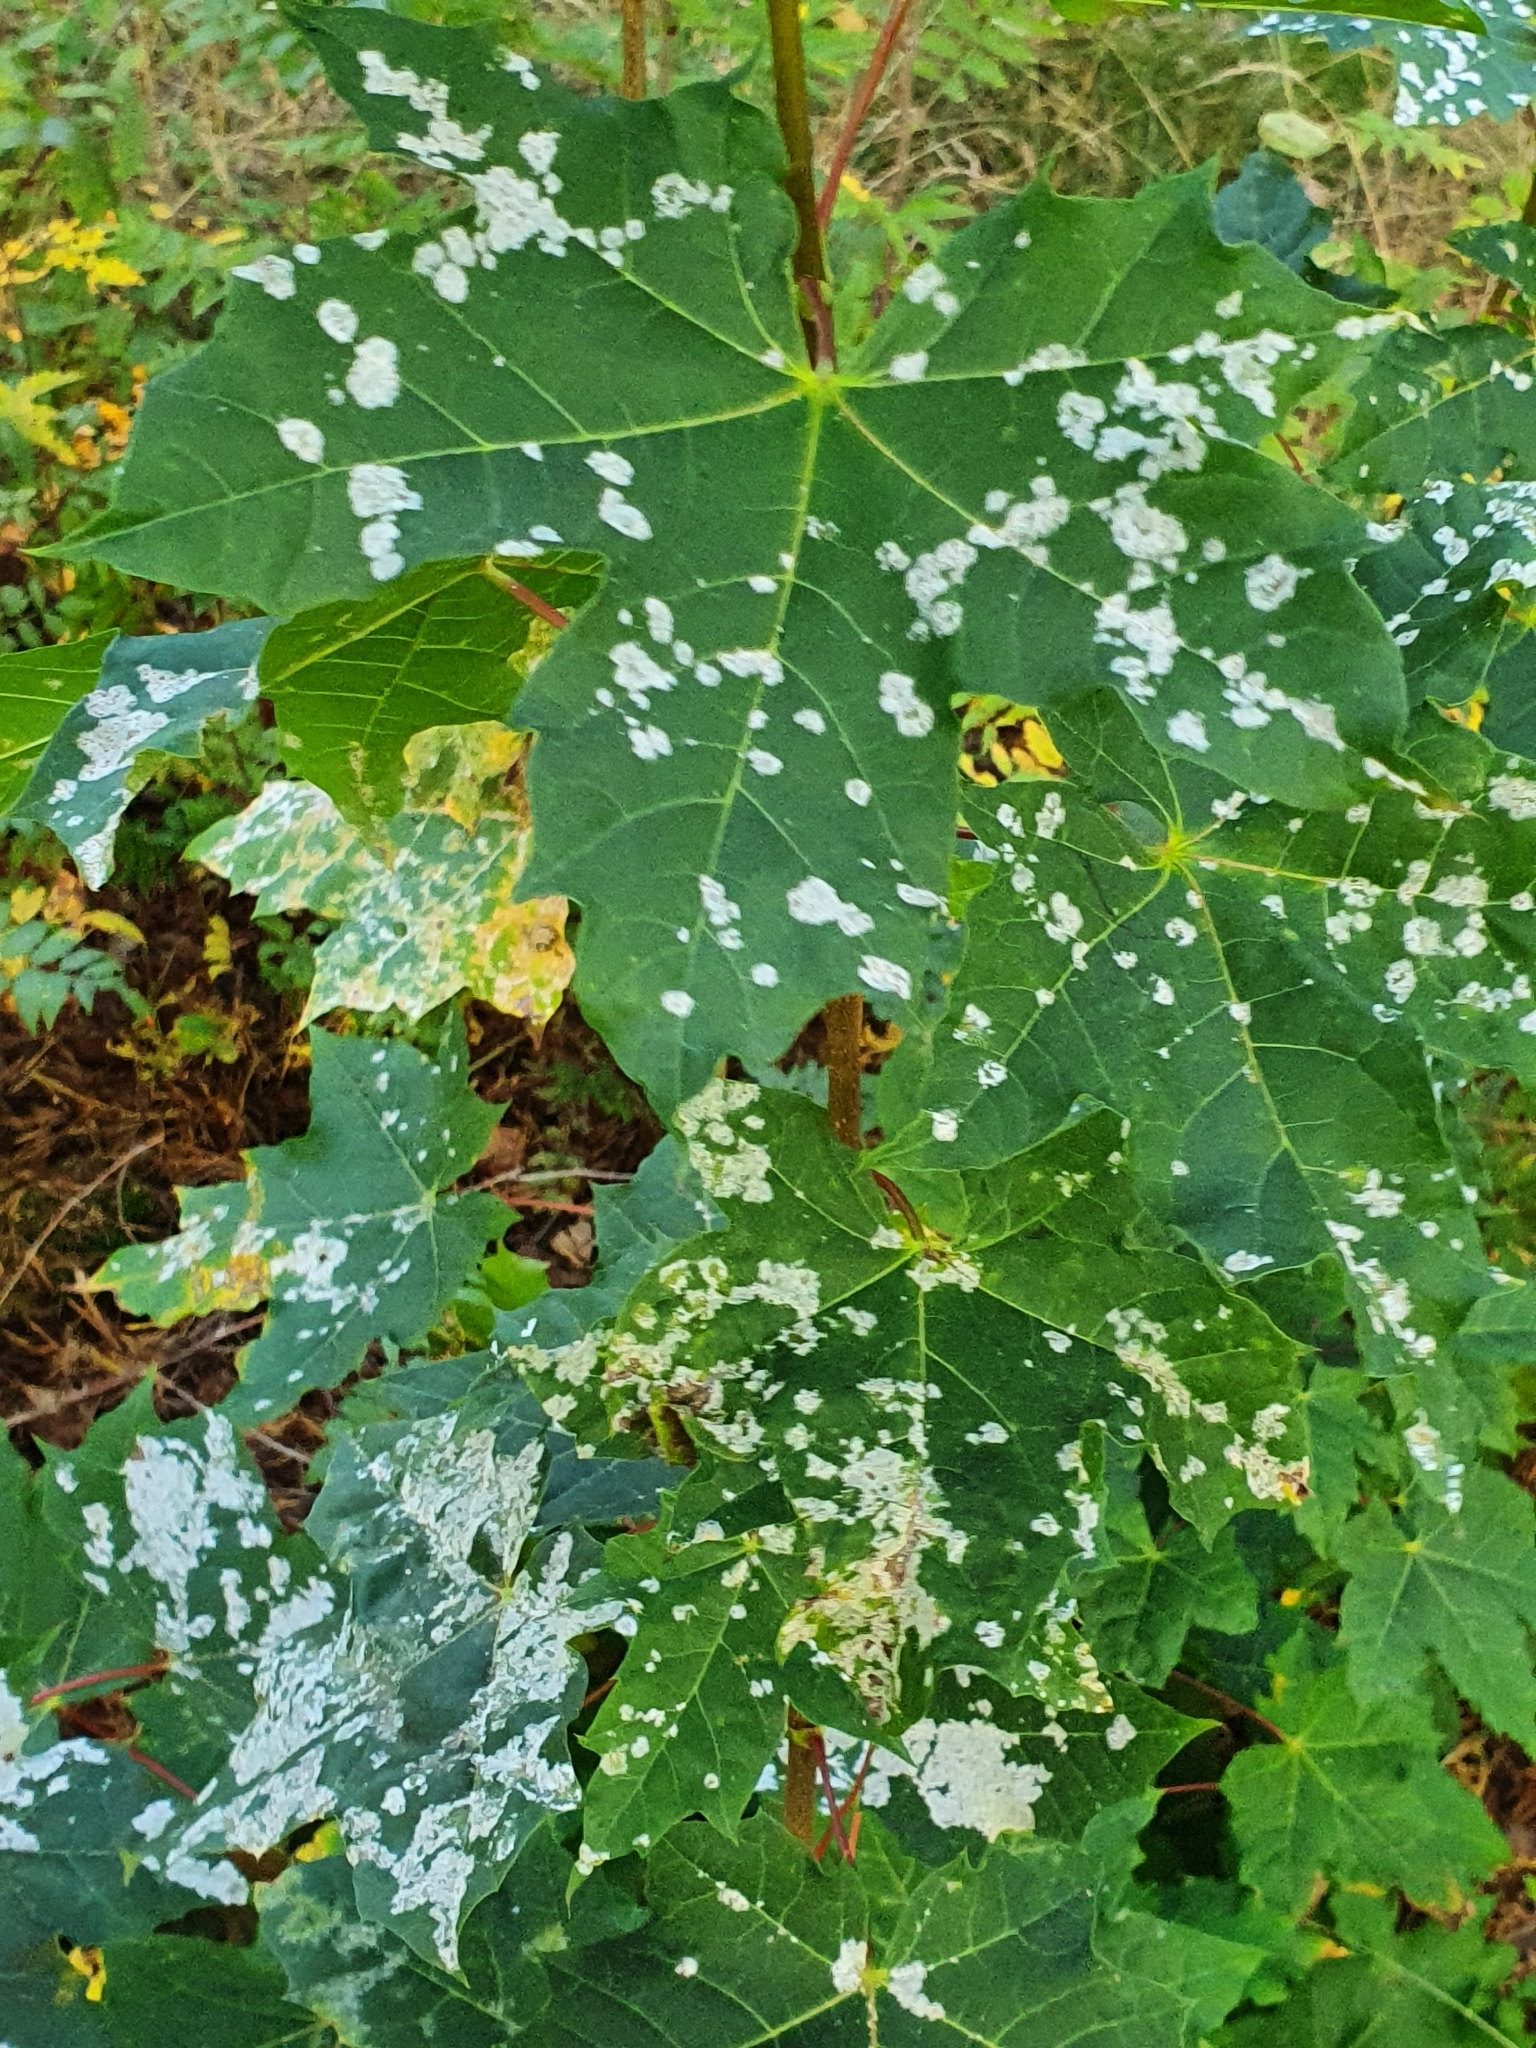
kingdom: Fungi
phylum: Ascomycota
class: Leotiomycetes
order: Helotiales
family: Erysiphaceae
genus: Sawadaea
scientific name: Sawadaea tulasnei
